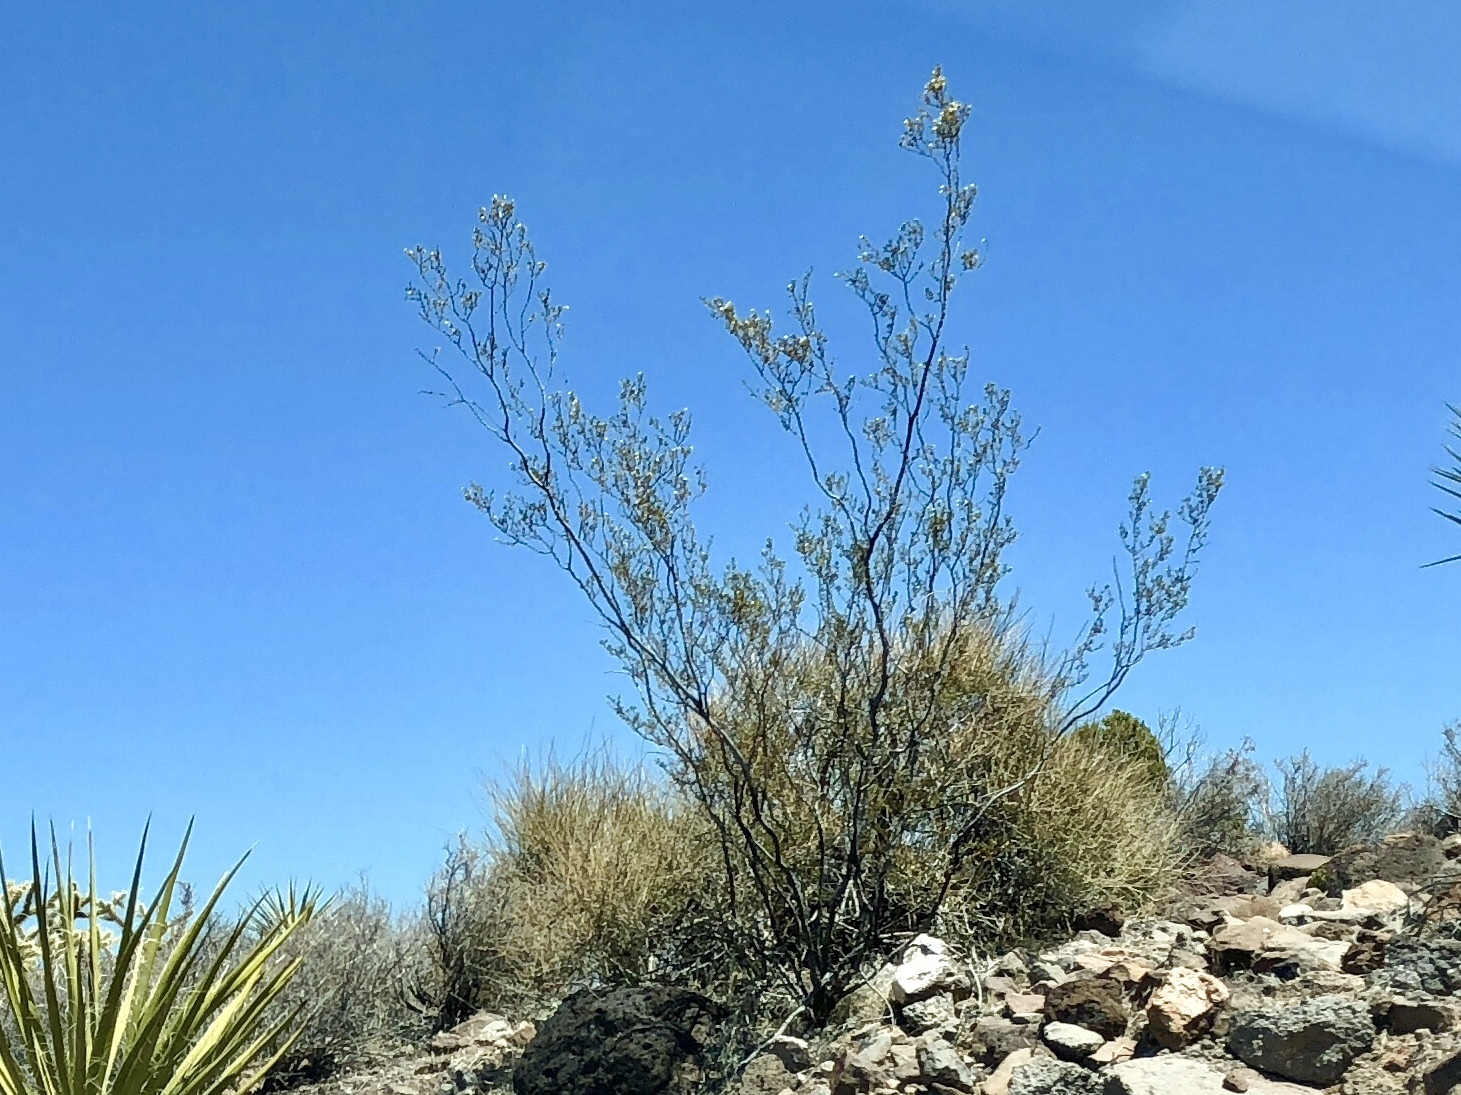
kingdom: Plantae
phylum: Tracheophyta
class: Magnoliopsida
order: Zygophyllales
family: Zygophyllaceae
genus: Larrea
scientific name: Larrea tridentata
